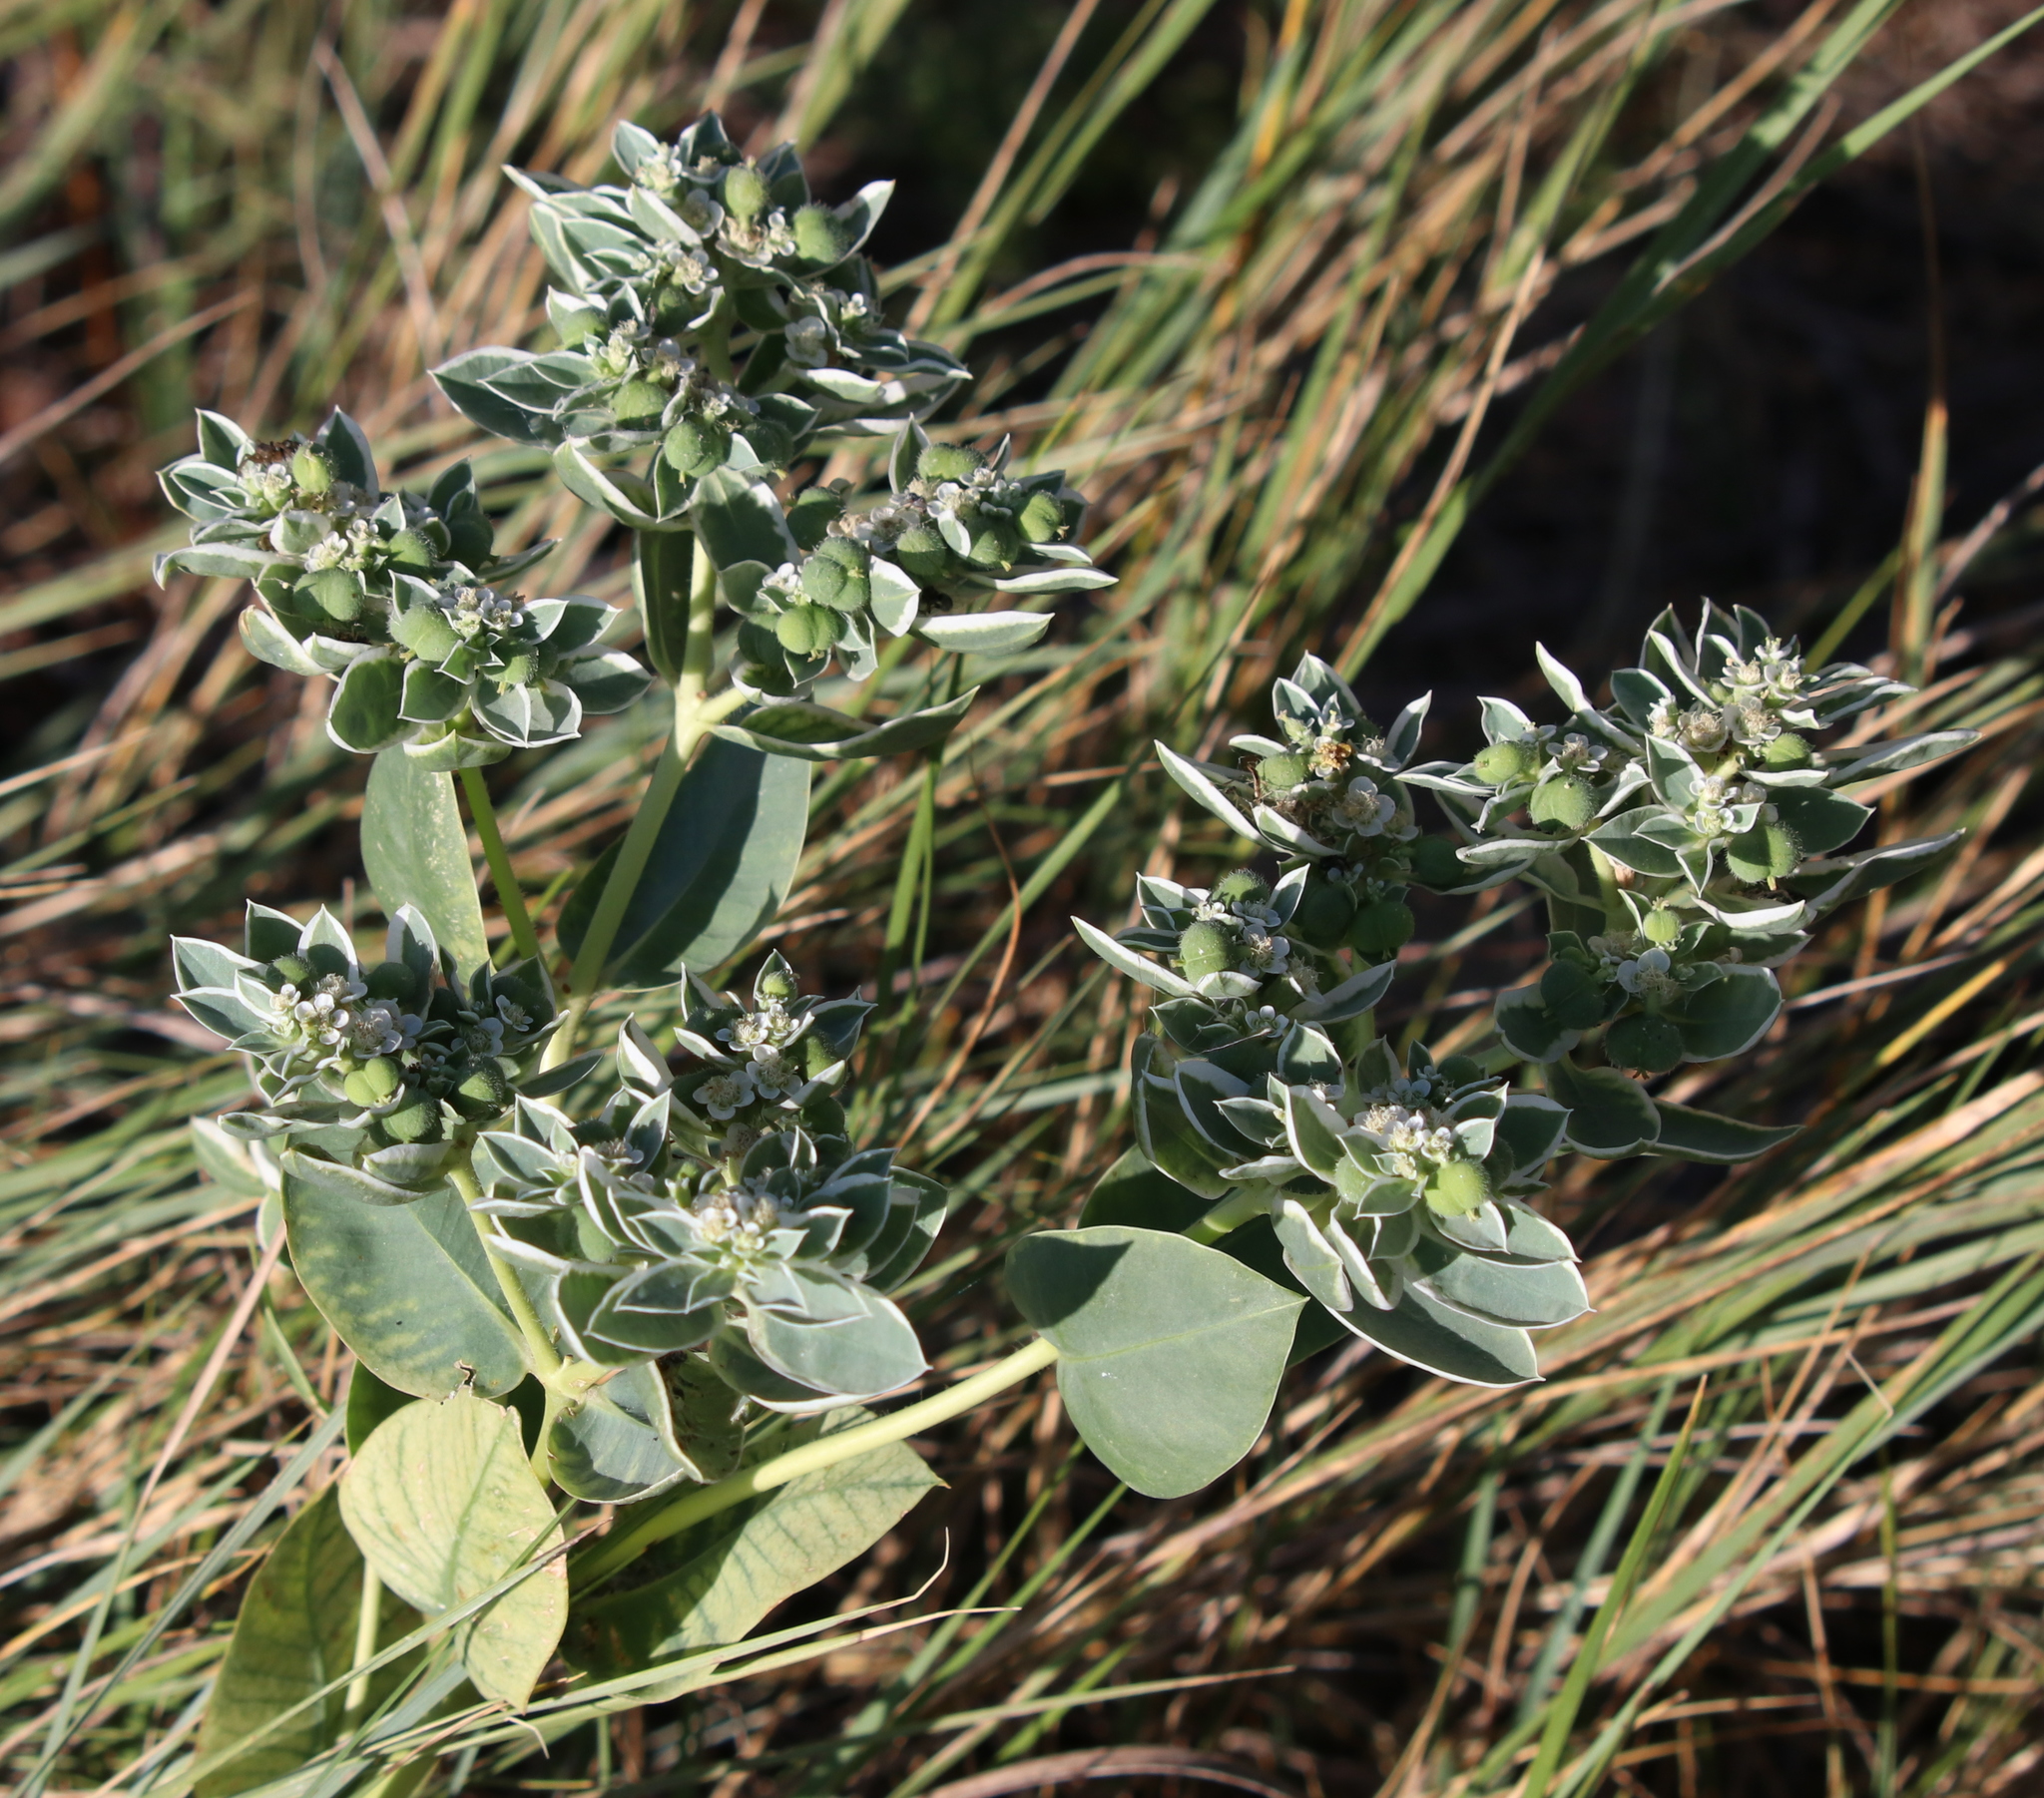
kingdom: Plantae
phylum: Tracheophyta
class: Magnoliopsida
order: Malpighiales
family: Euphorbiaceae
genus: Euphorbia
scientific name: Euphorbia marginata
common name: Ghostweed
